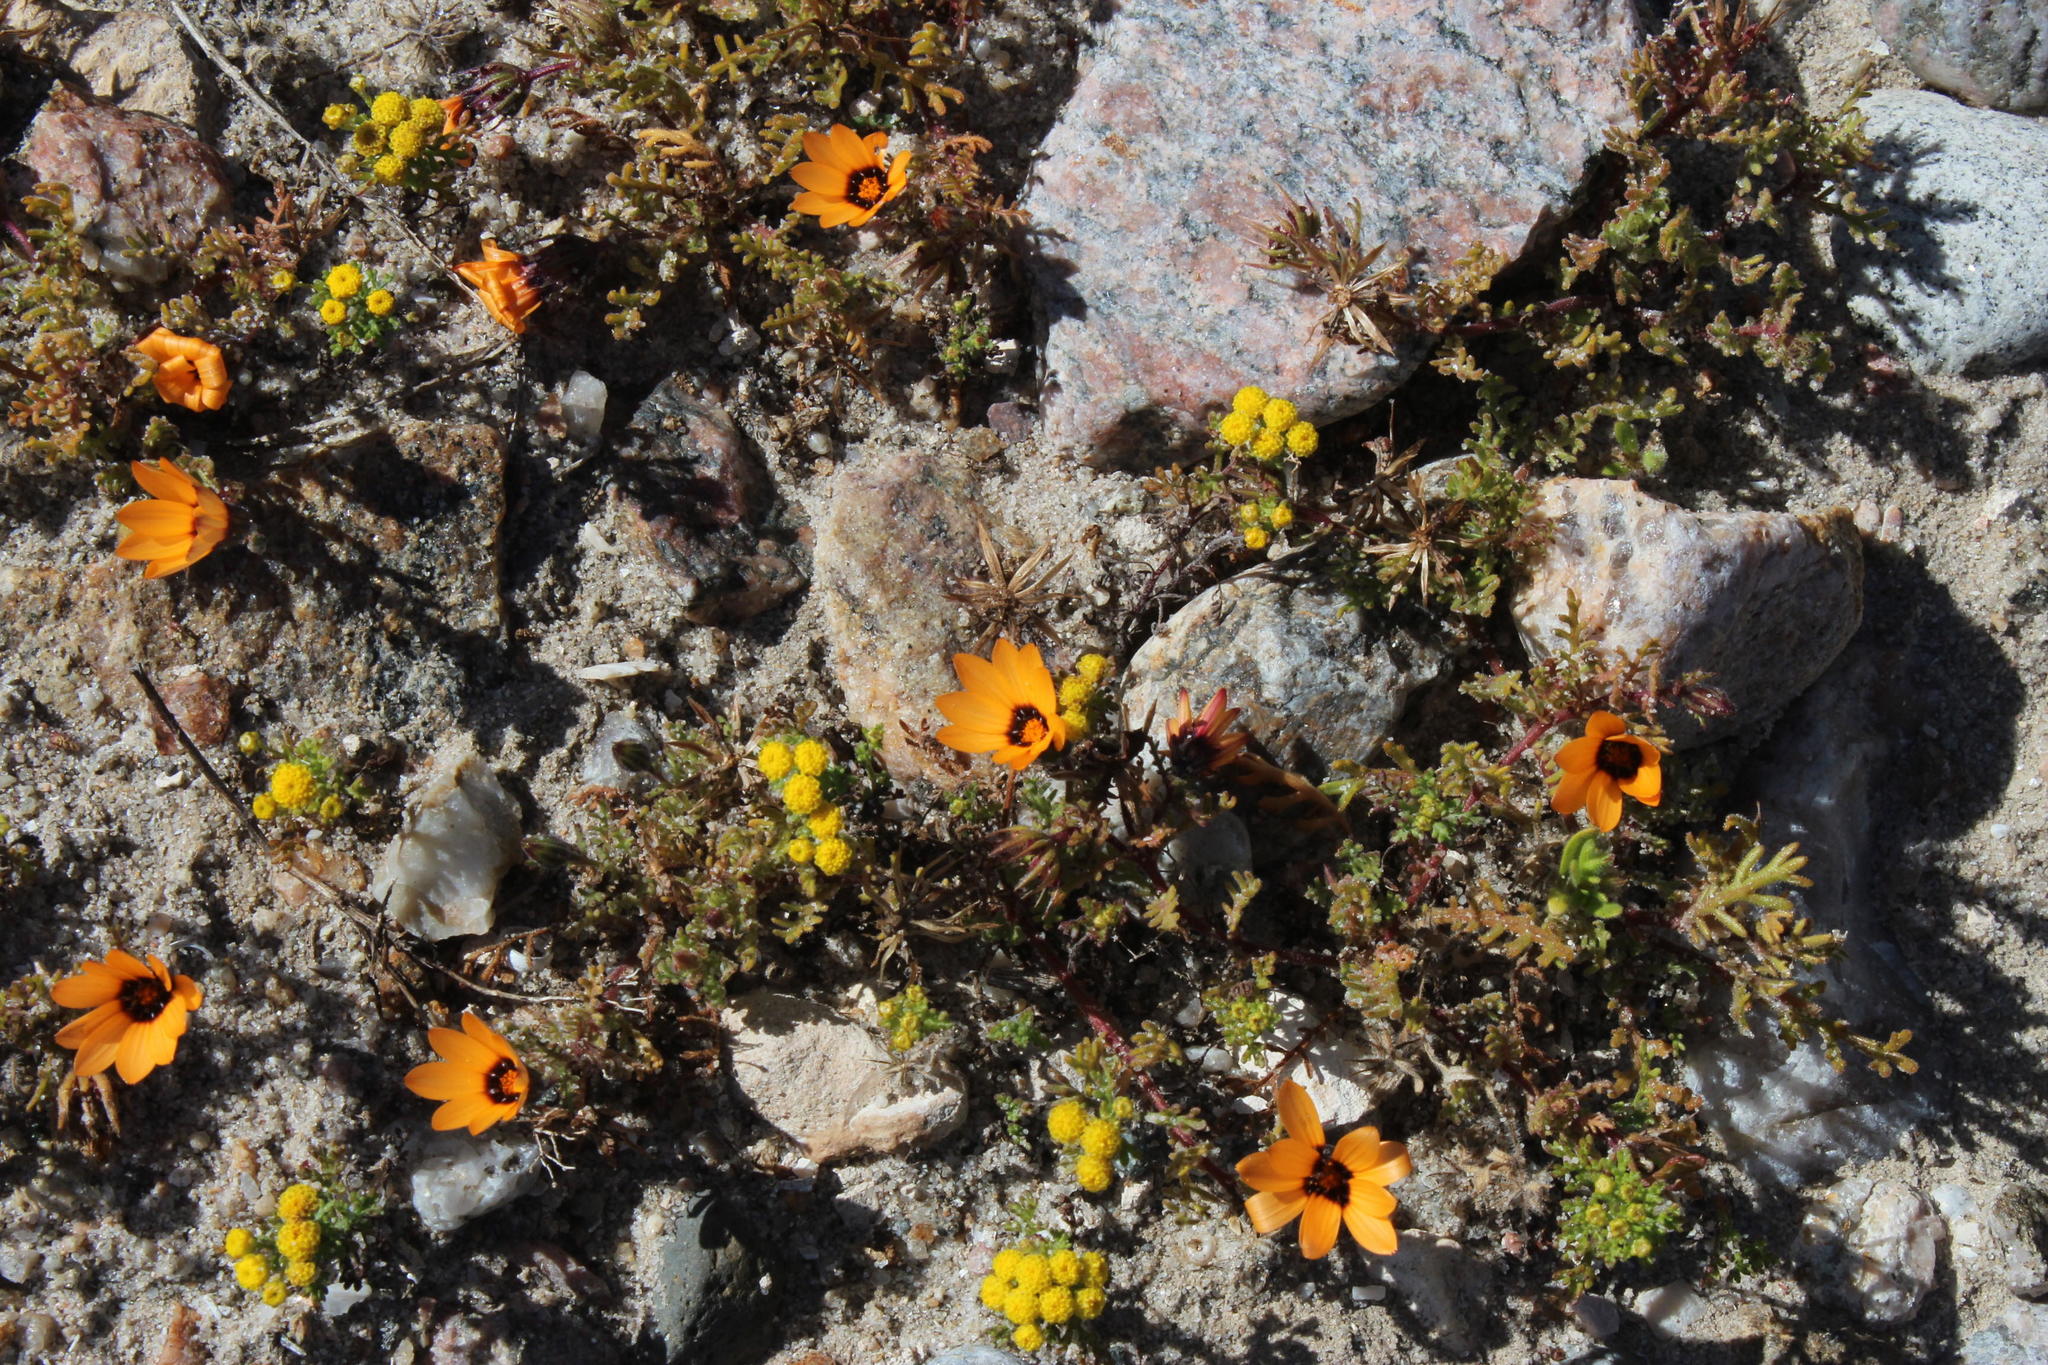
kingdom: Plantae
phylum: Tracheophyta
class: Magnoliopsida
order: Asterales
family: Asteraceae
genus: Dimorphotheca
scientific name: Dimorphotheca pinnata
